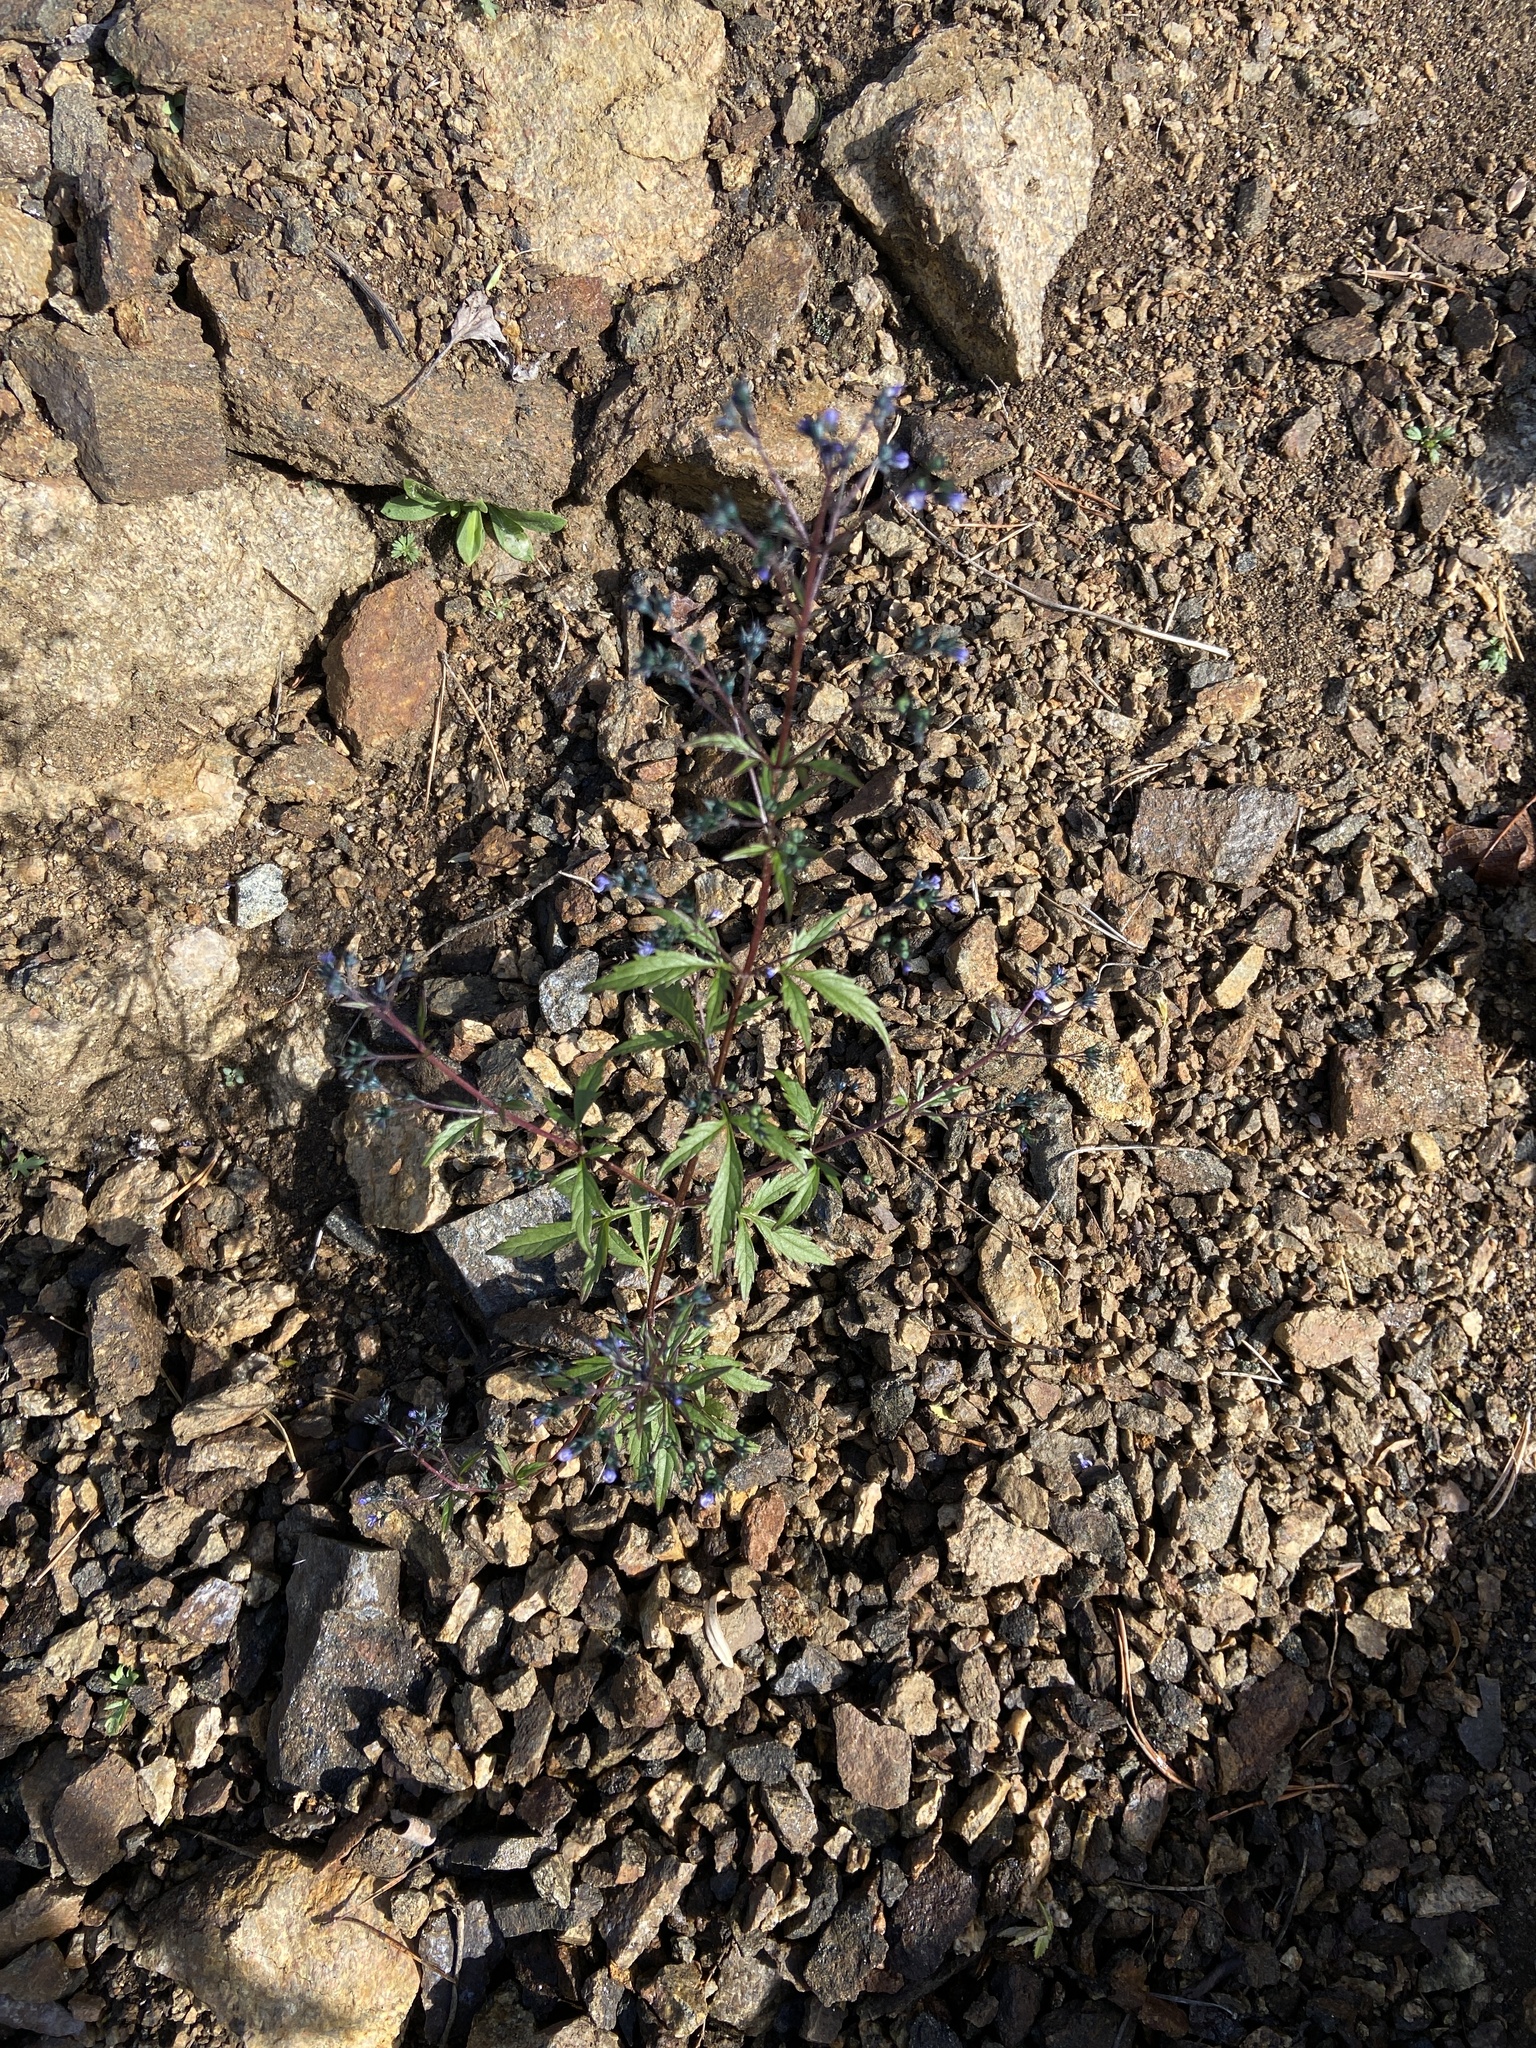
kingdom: Plantae
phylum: Tracheophyta
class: Magnoliopsida
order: Lamiales
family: Lamiaceae
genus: Amethystea
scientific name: Amethystea caerulea
